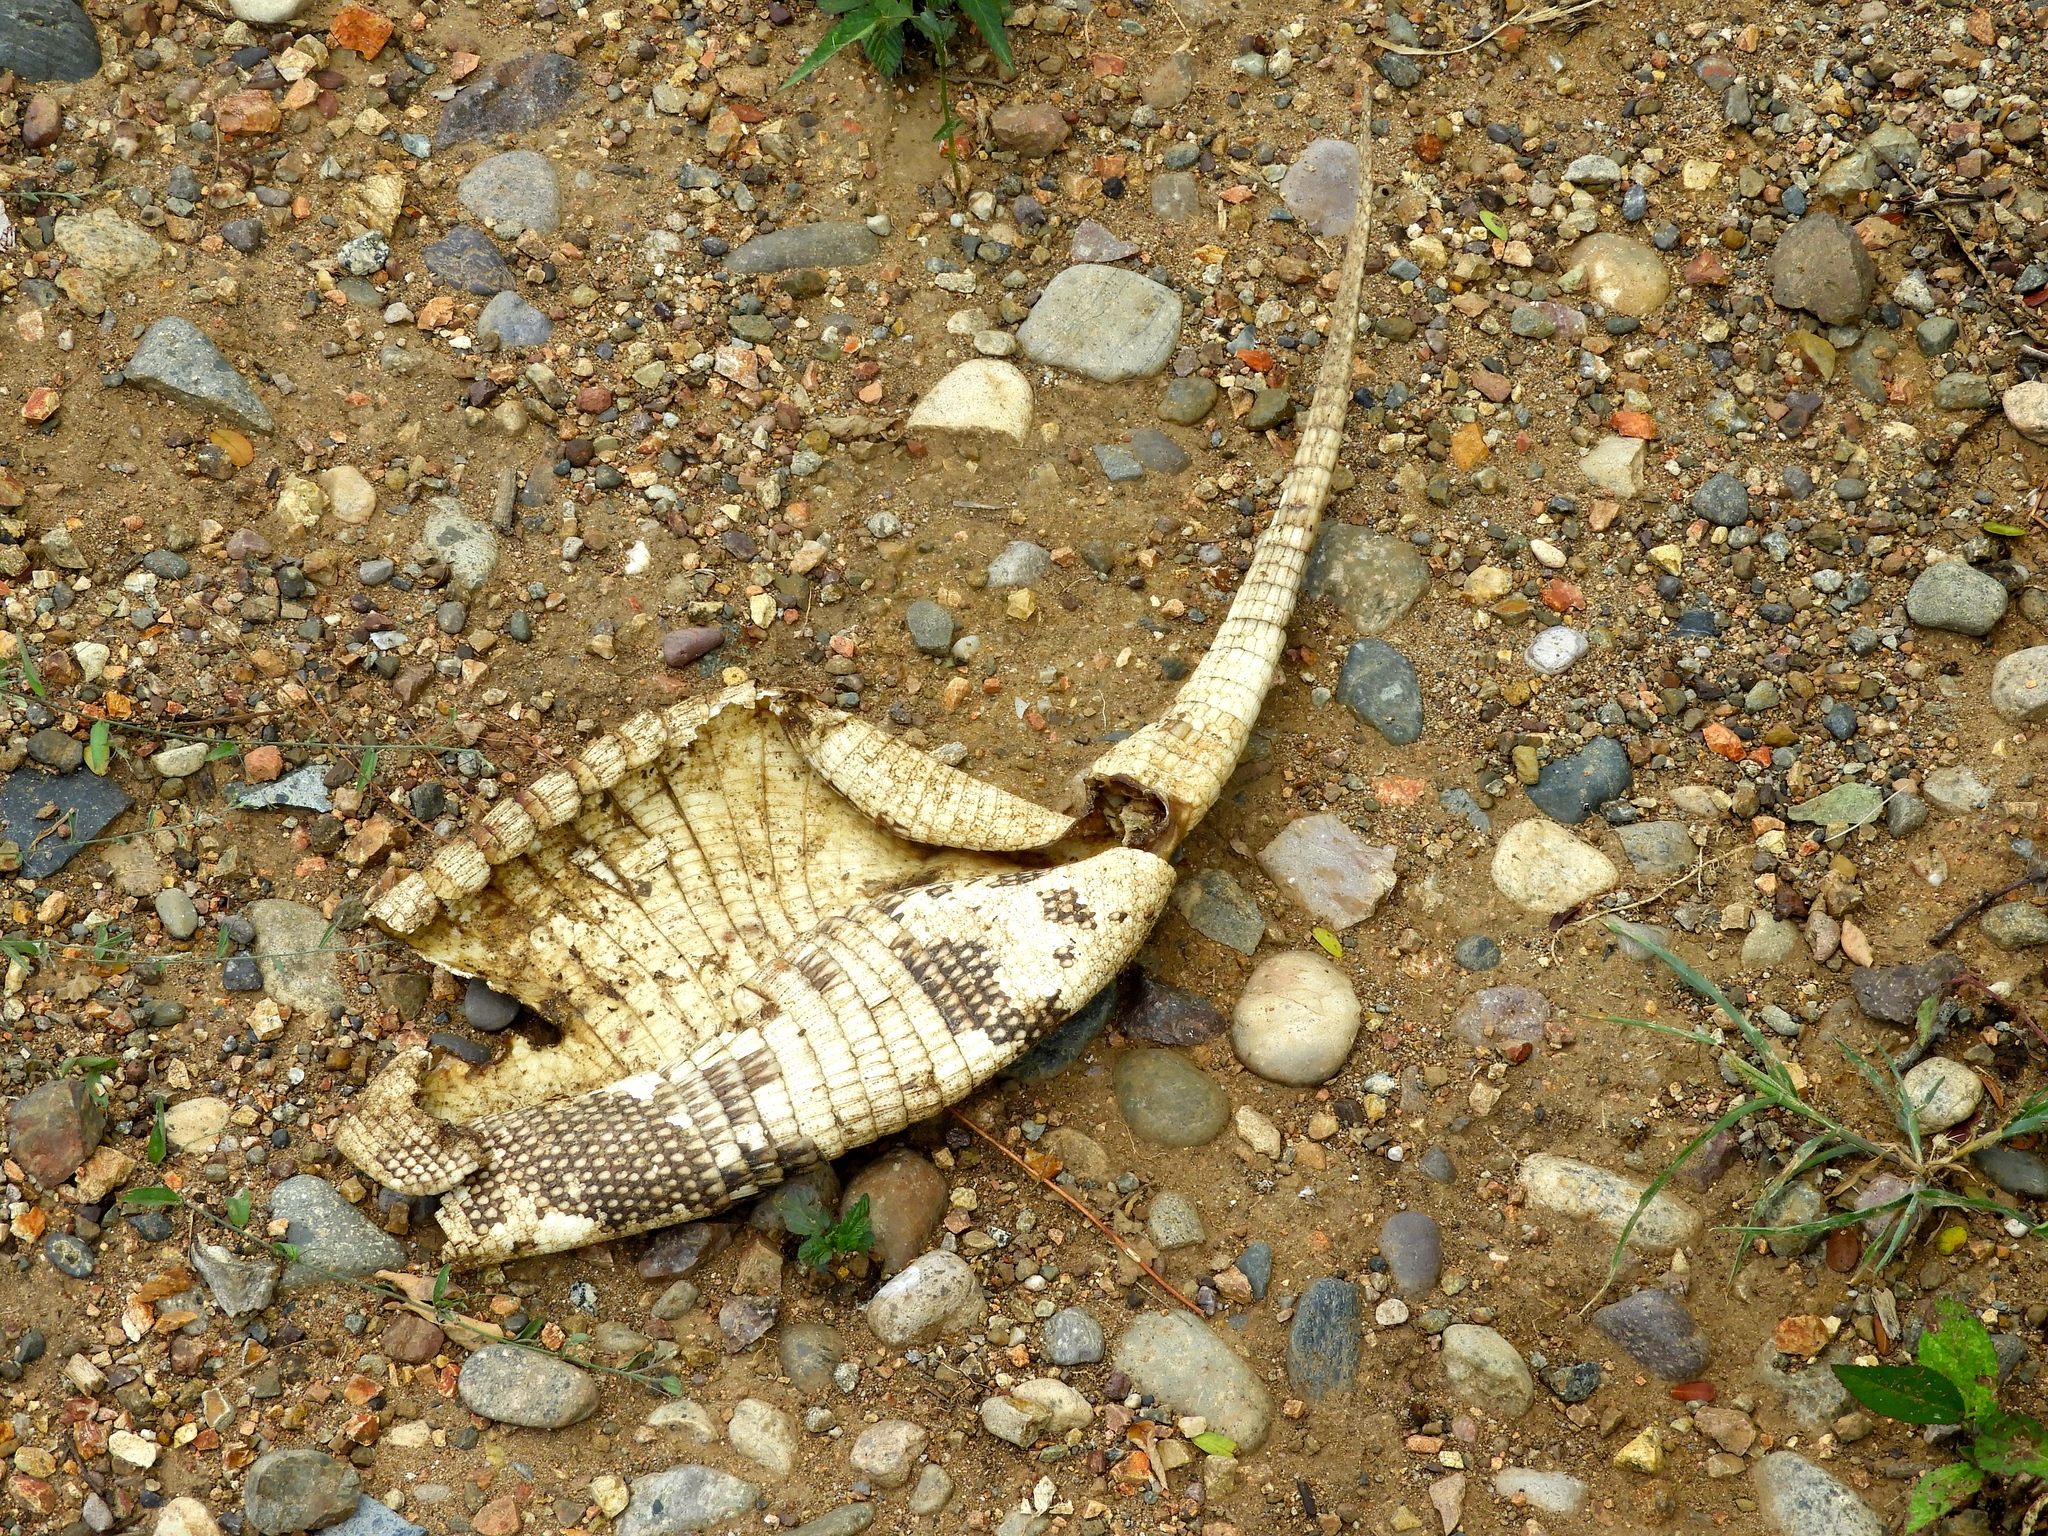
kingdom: Animalia
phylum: Chordata
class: Mammalia
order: Cingulata
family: Dasypodidae
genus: Dasypus
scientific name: Dasypus novemcinctus
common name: Nine-banded armadillo
